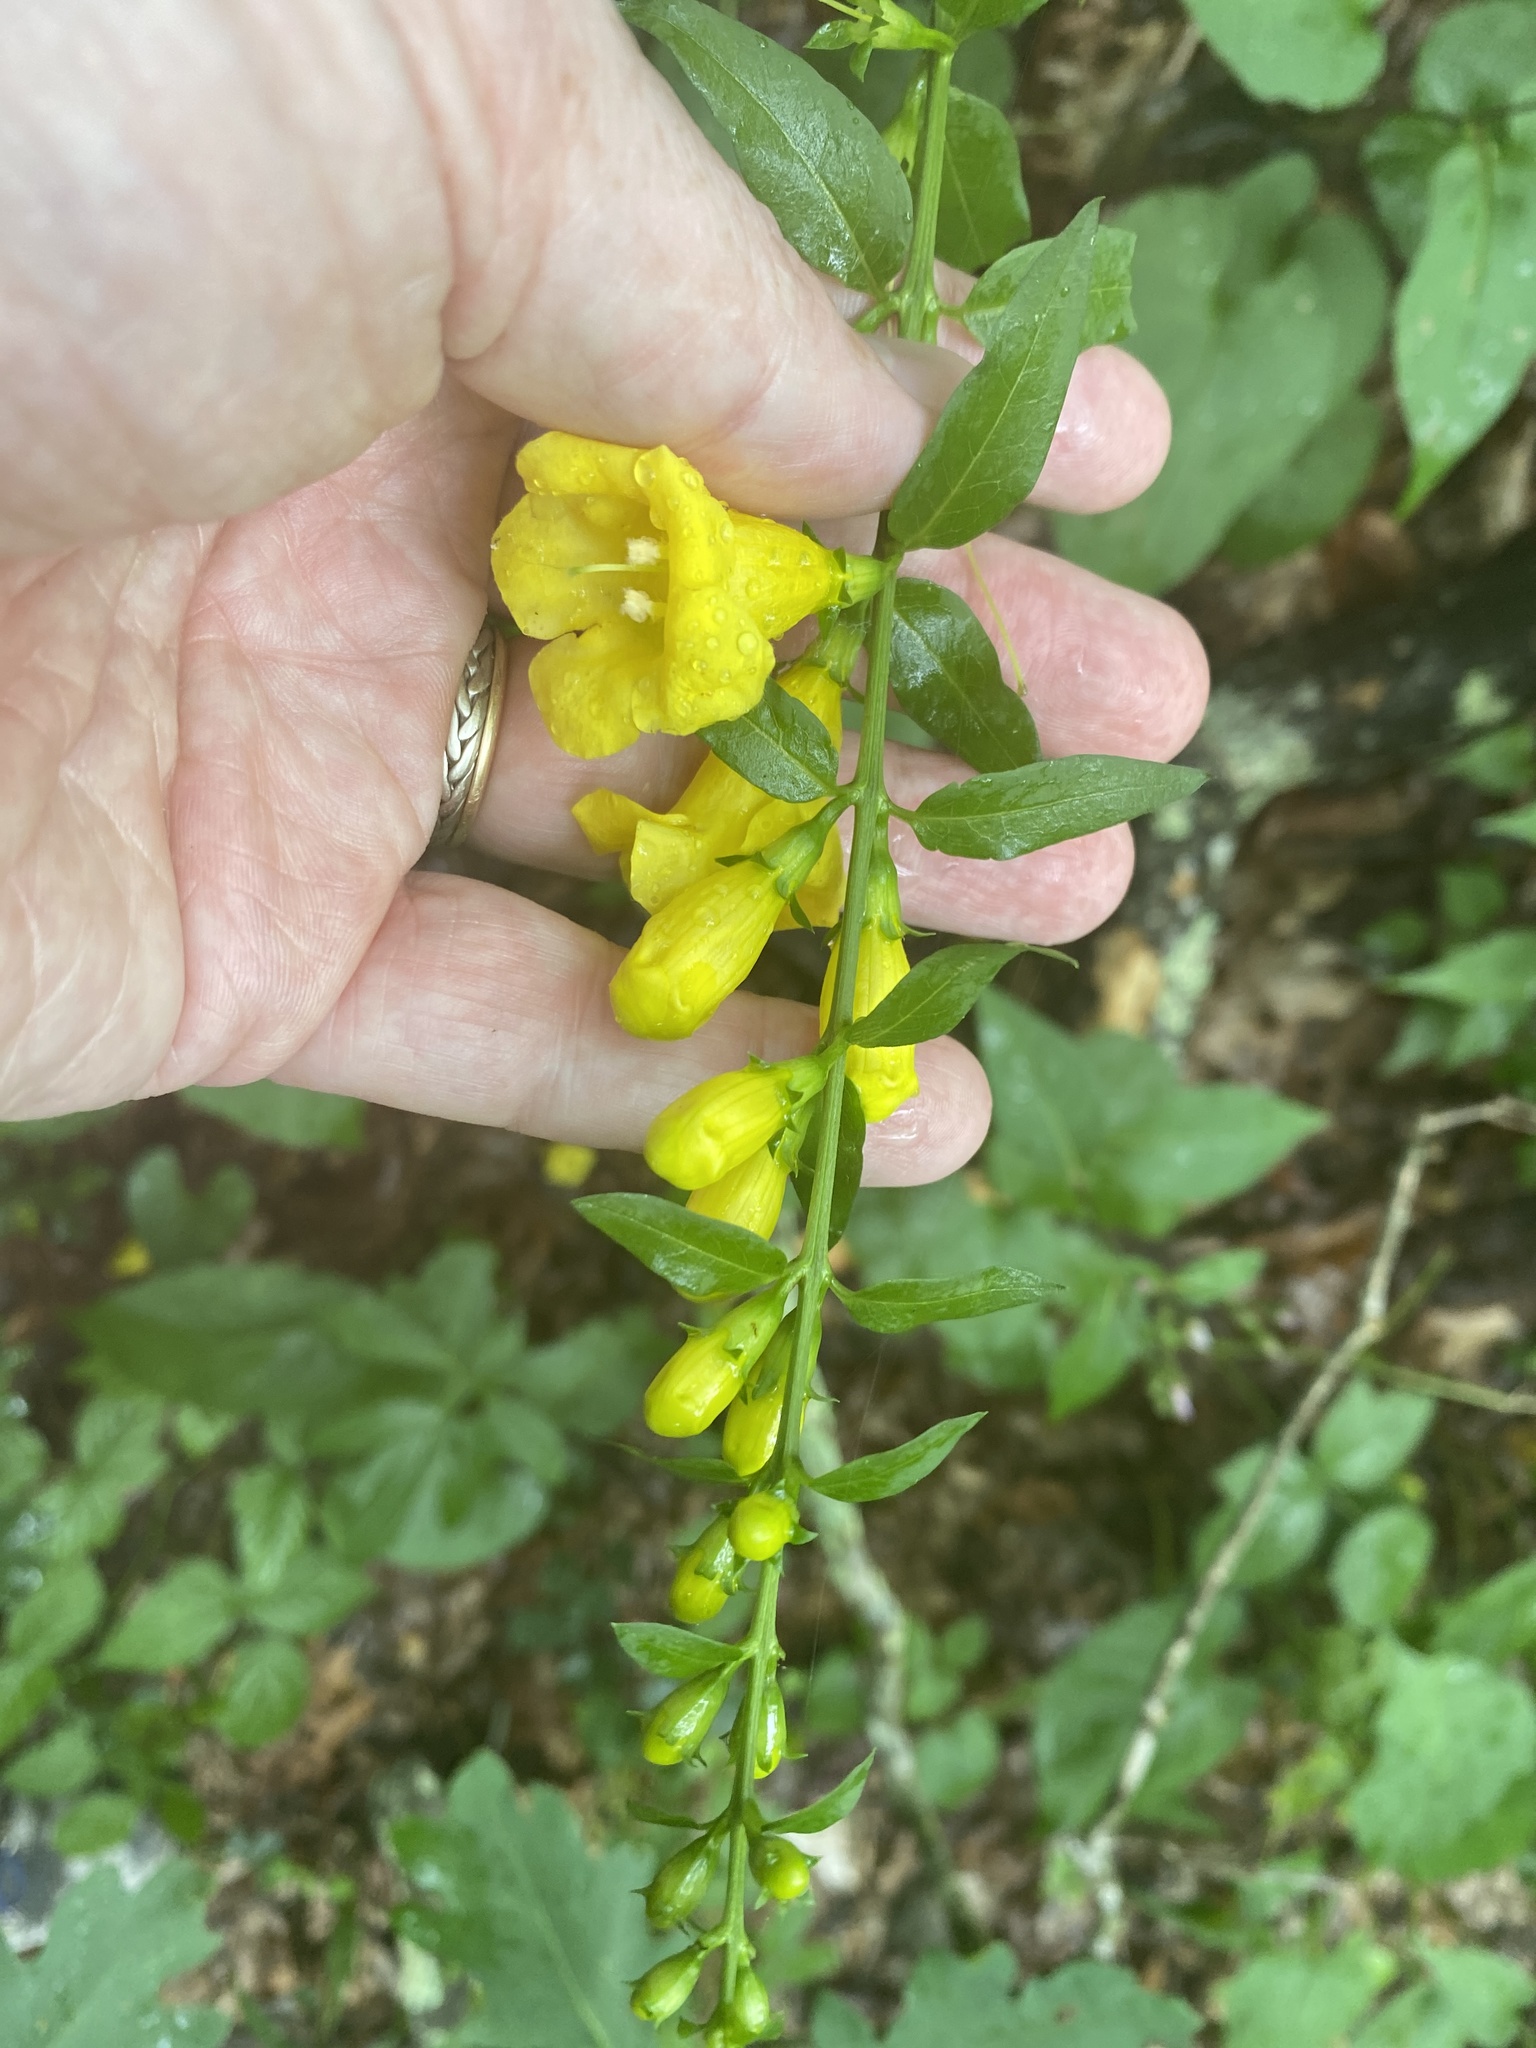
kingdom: Plantae
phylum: Tracheophyta
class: Magnoliopsida
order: Lamiales
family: Orobanchaceae
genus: Aureolaria
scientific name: Aureolaria levigata
